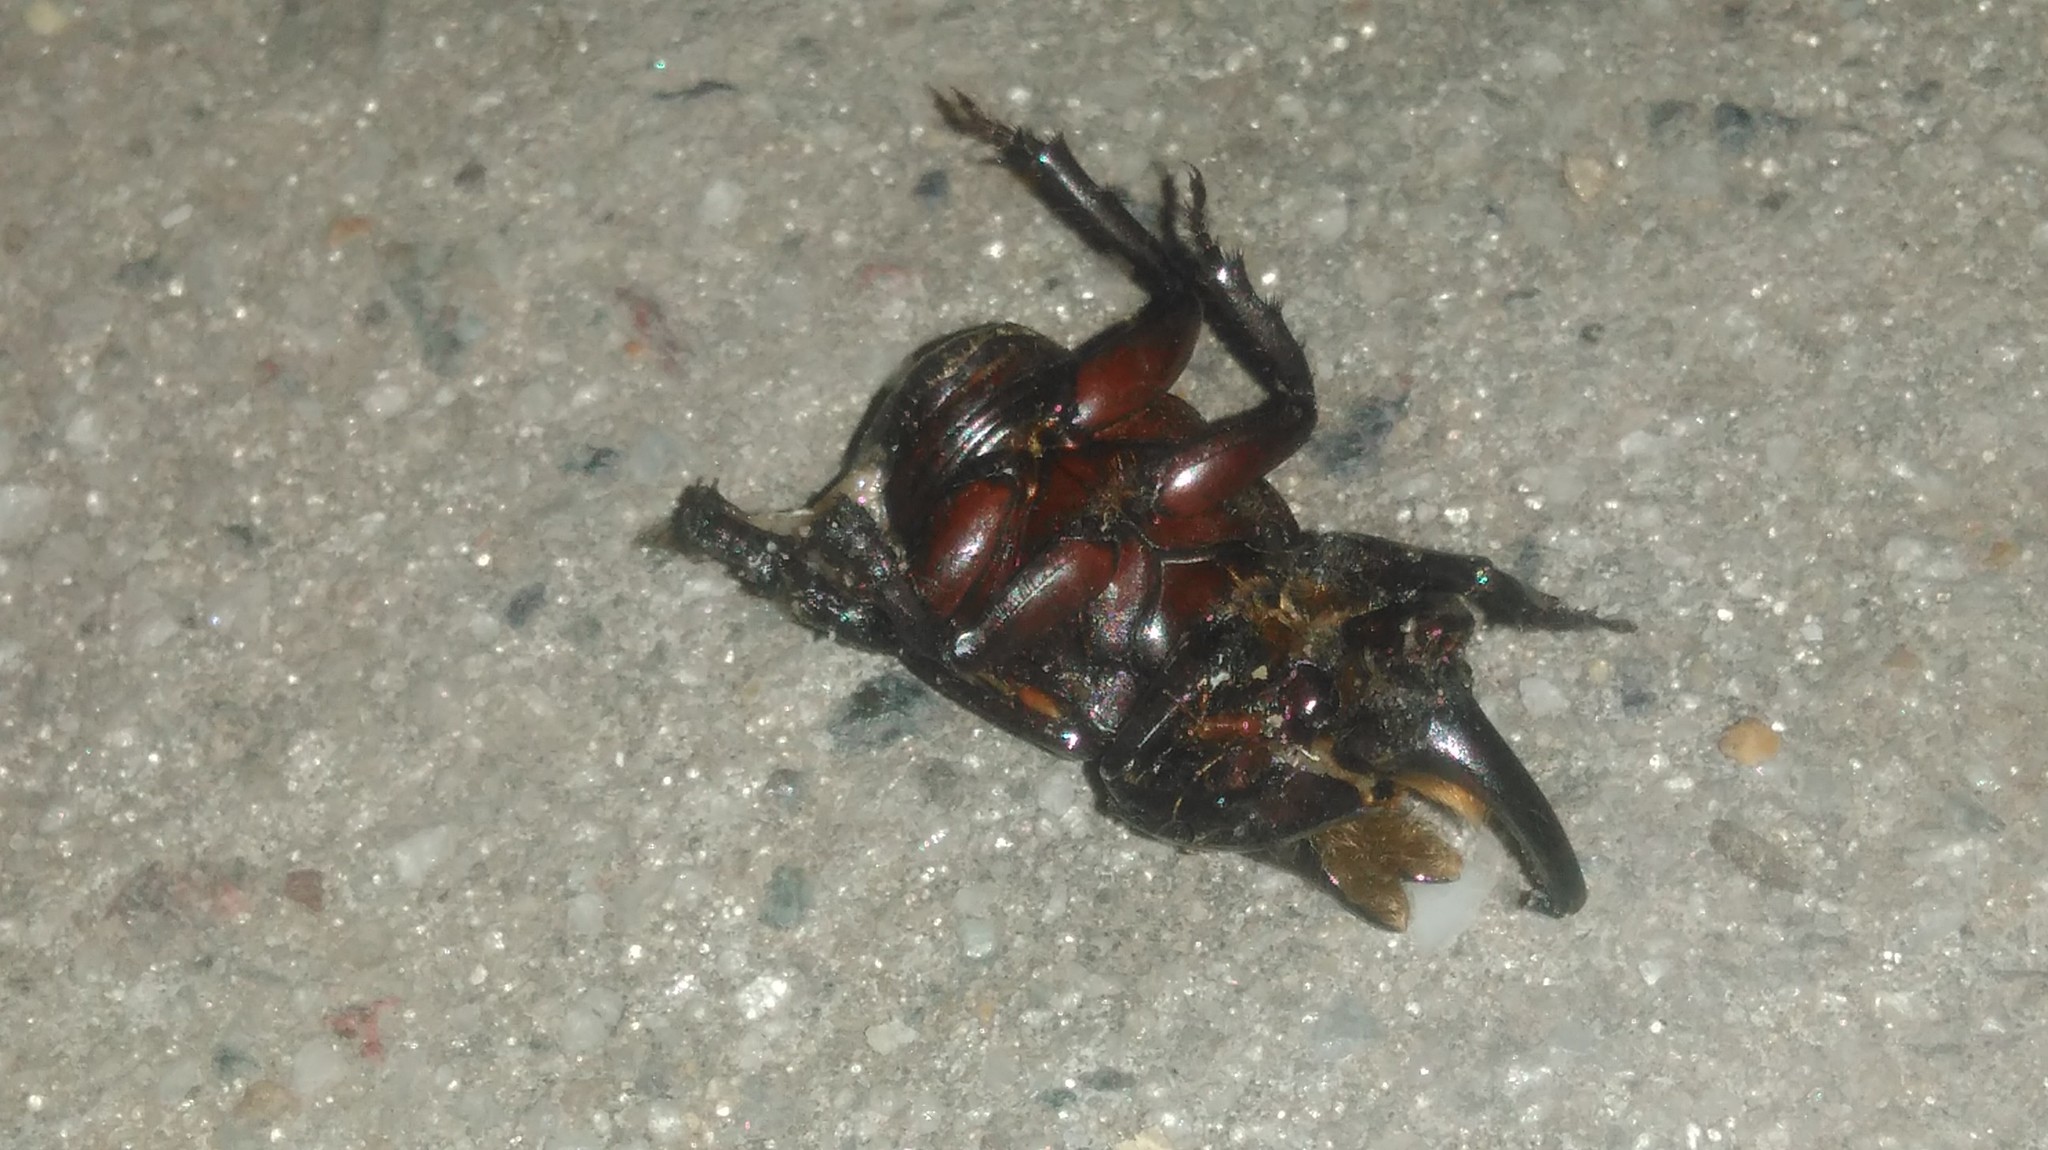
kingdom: Animalia
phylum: Arthropoda
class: Insecta
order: Coleoptera
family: Scarabaeidae
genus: Diloboderus
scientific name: Diloboderus abderus
